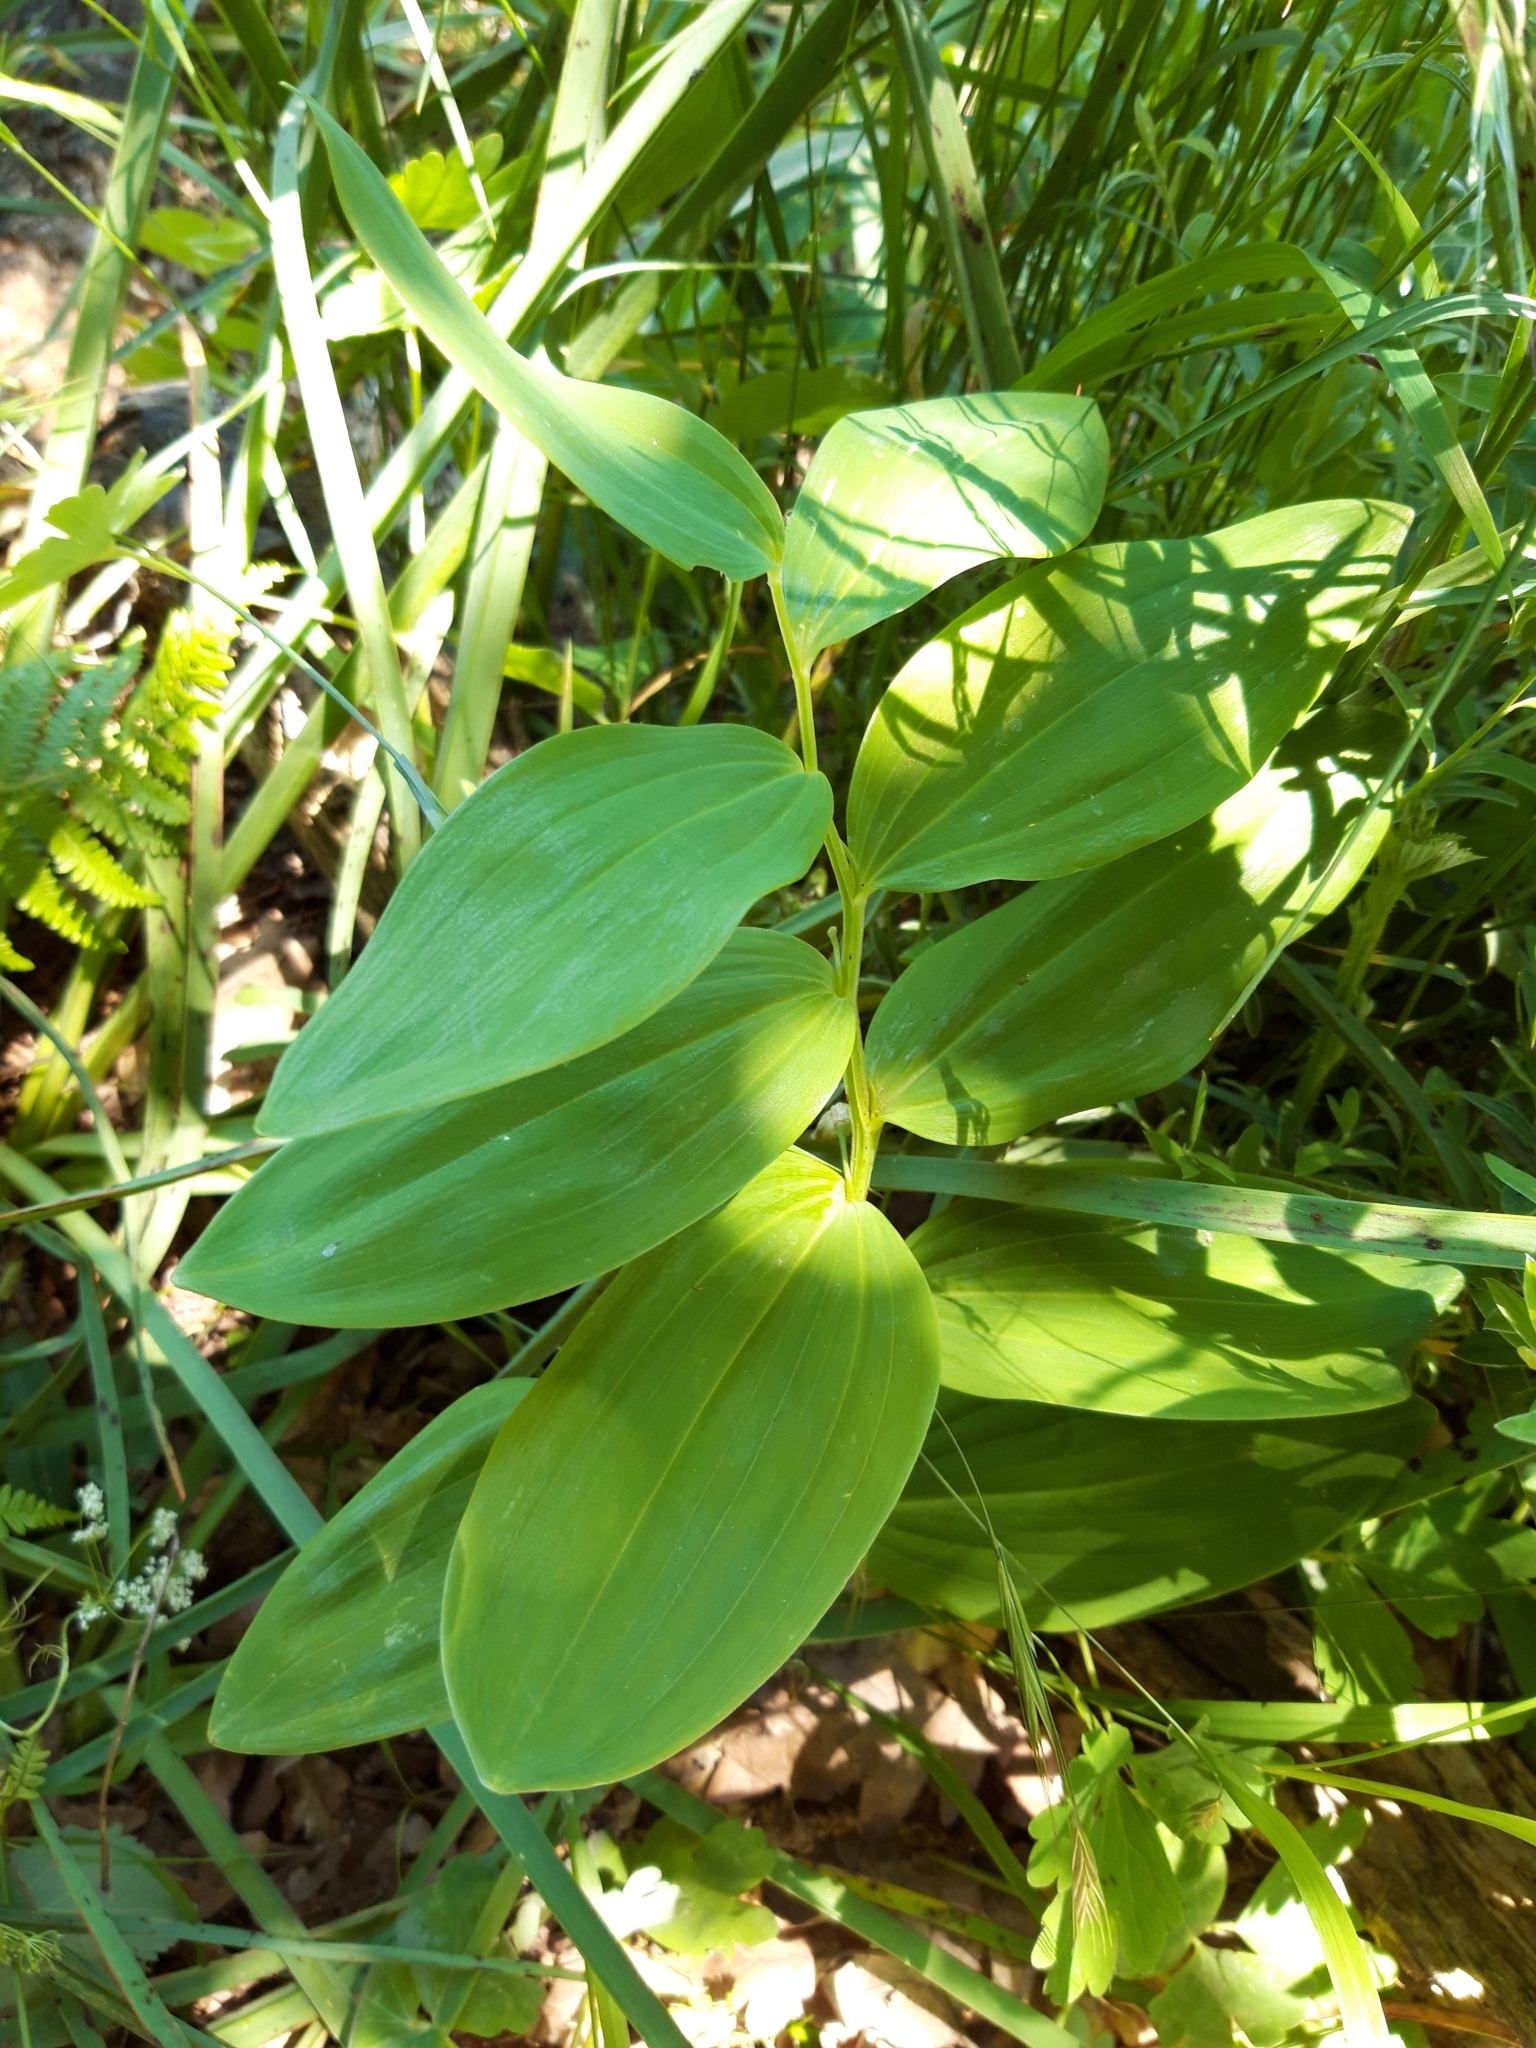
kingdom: Plantae
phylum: Tracheophyta
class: Liliopsida
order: Asparagales
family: Asparagaceae
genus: Polygonatum
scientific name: Polygonatum odoratum
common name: Angular solomon's-seal
